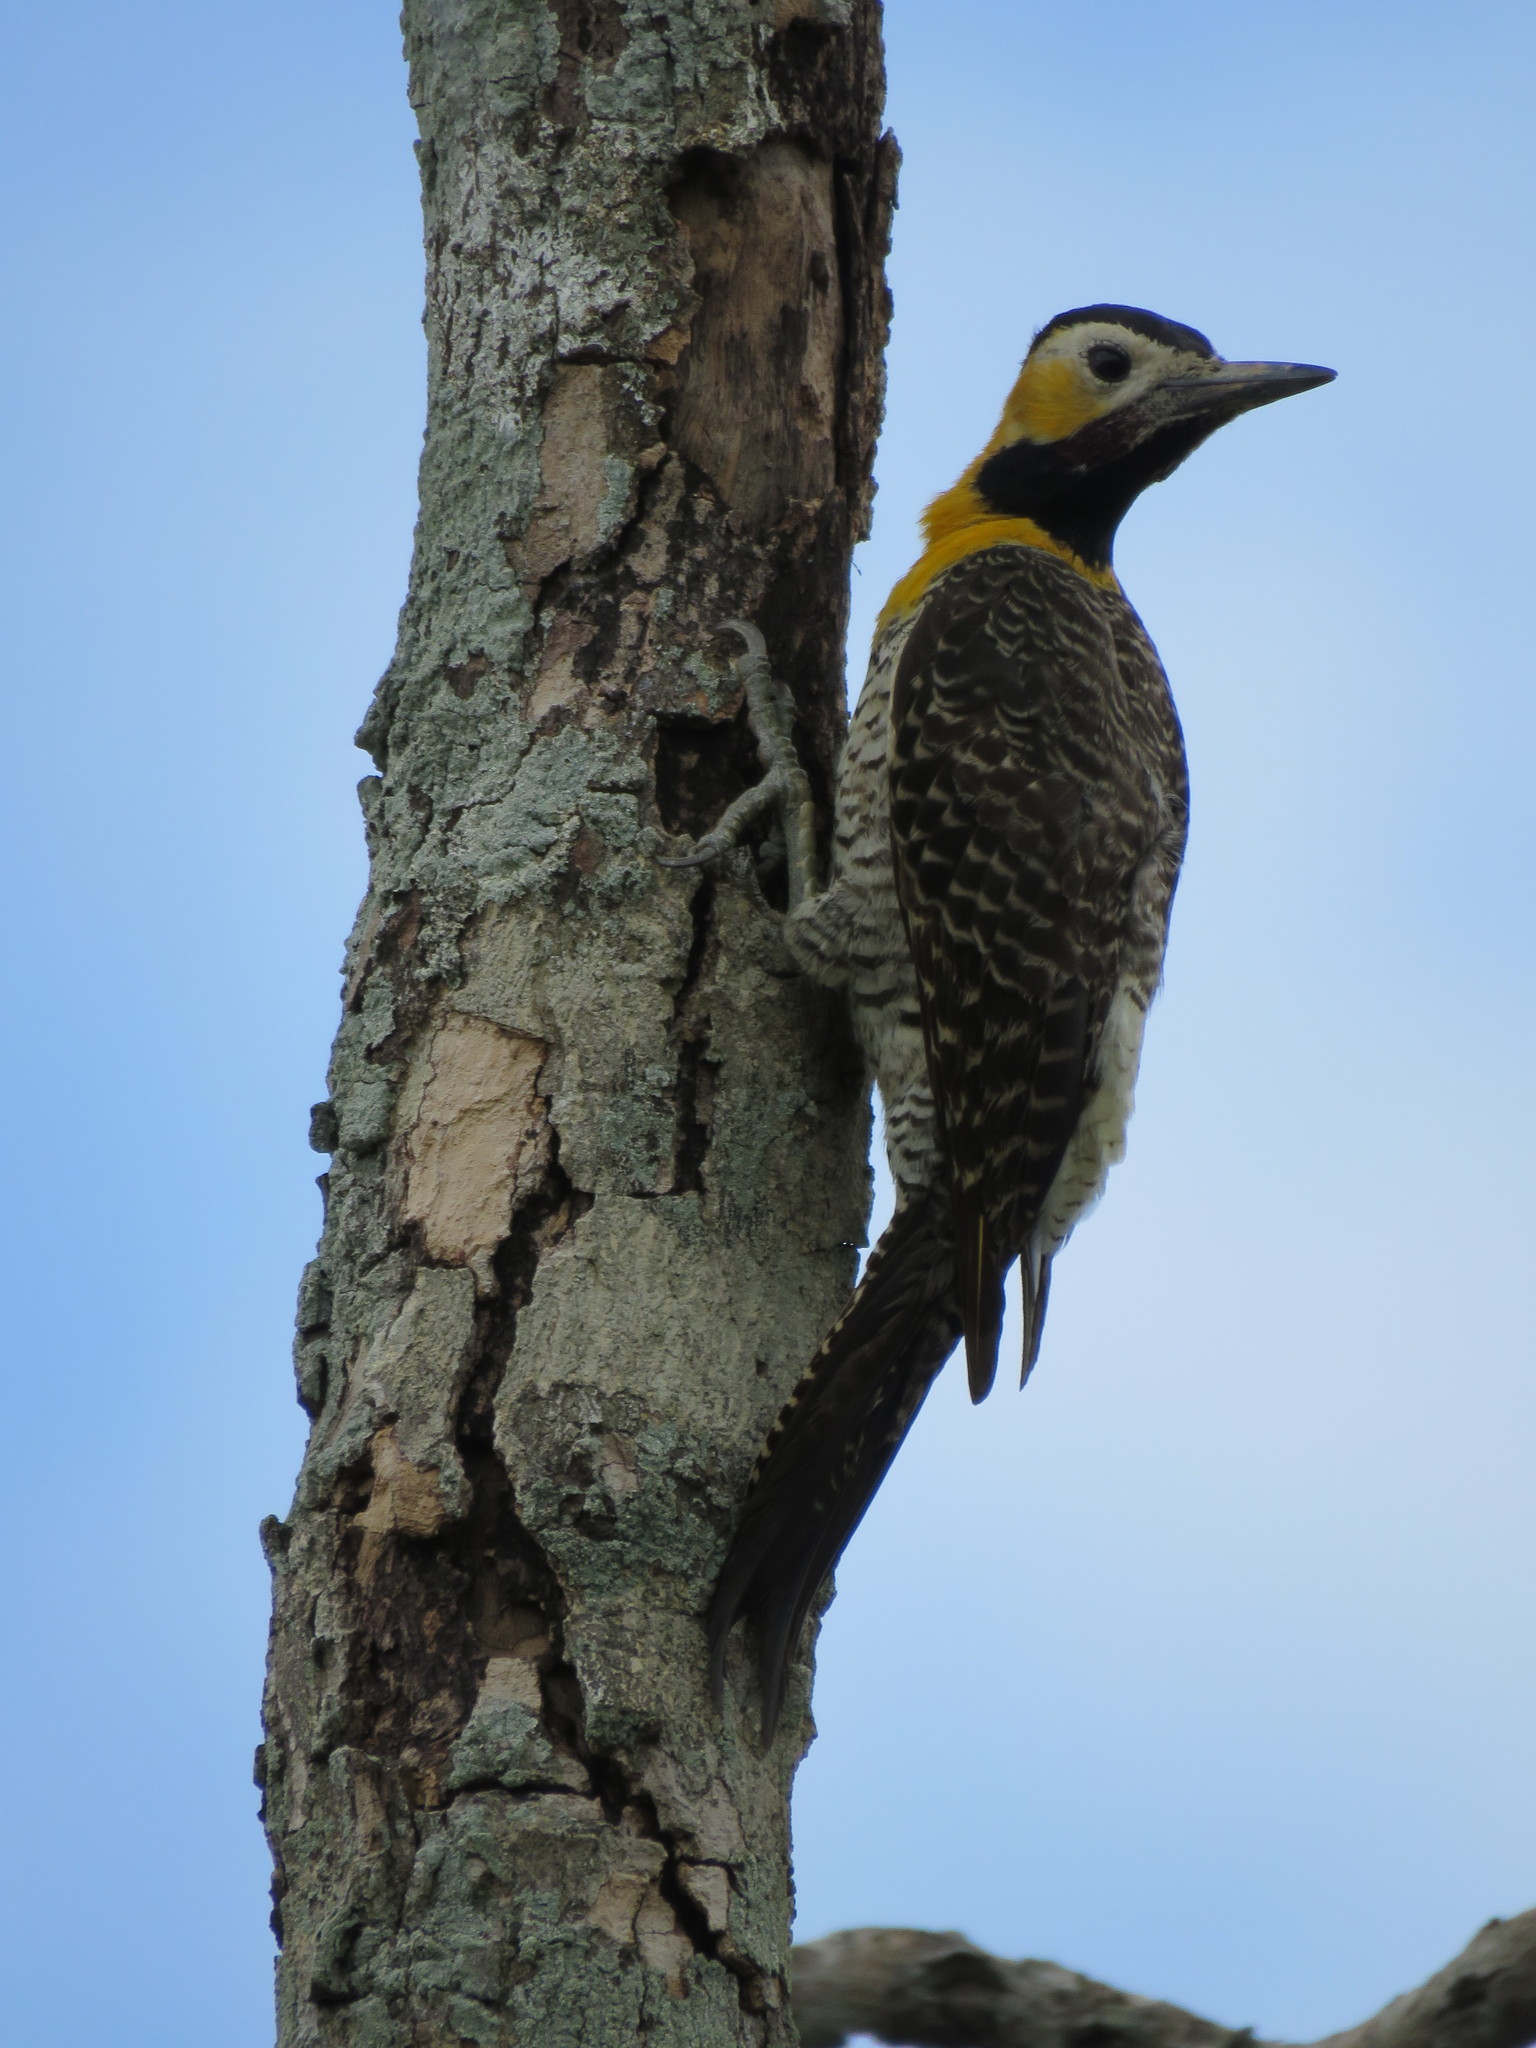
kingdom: Animalia
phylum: Chordata
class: Aves
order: Piciformes
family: Picidae
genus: Colaptes
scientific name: Colaptes campestris
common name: Campo flicker
